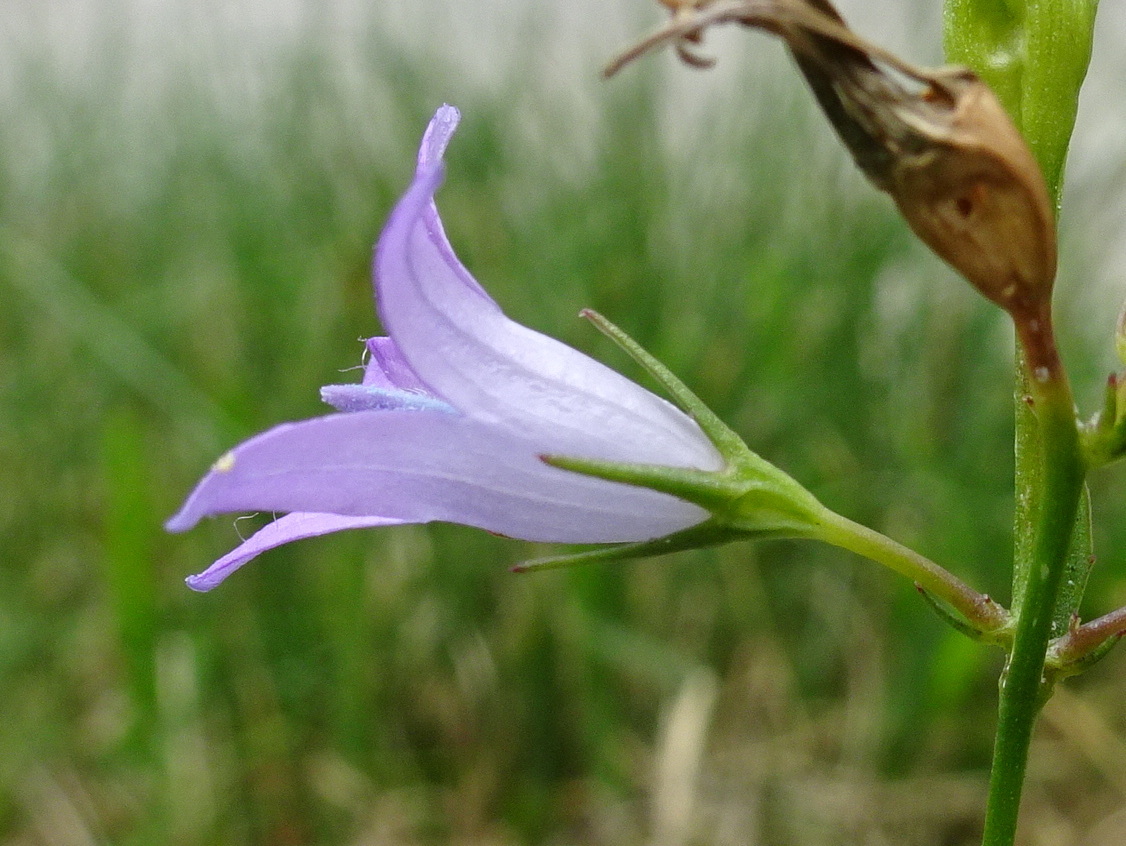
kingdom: Plantae
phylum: Tracheophyta
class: Magnoliopsida
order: Asterales
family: Campanulaceae
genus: Campanula
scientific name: Campanula rapunculus
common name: Rampion bellflower
